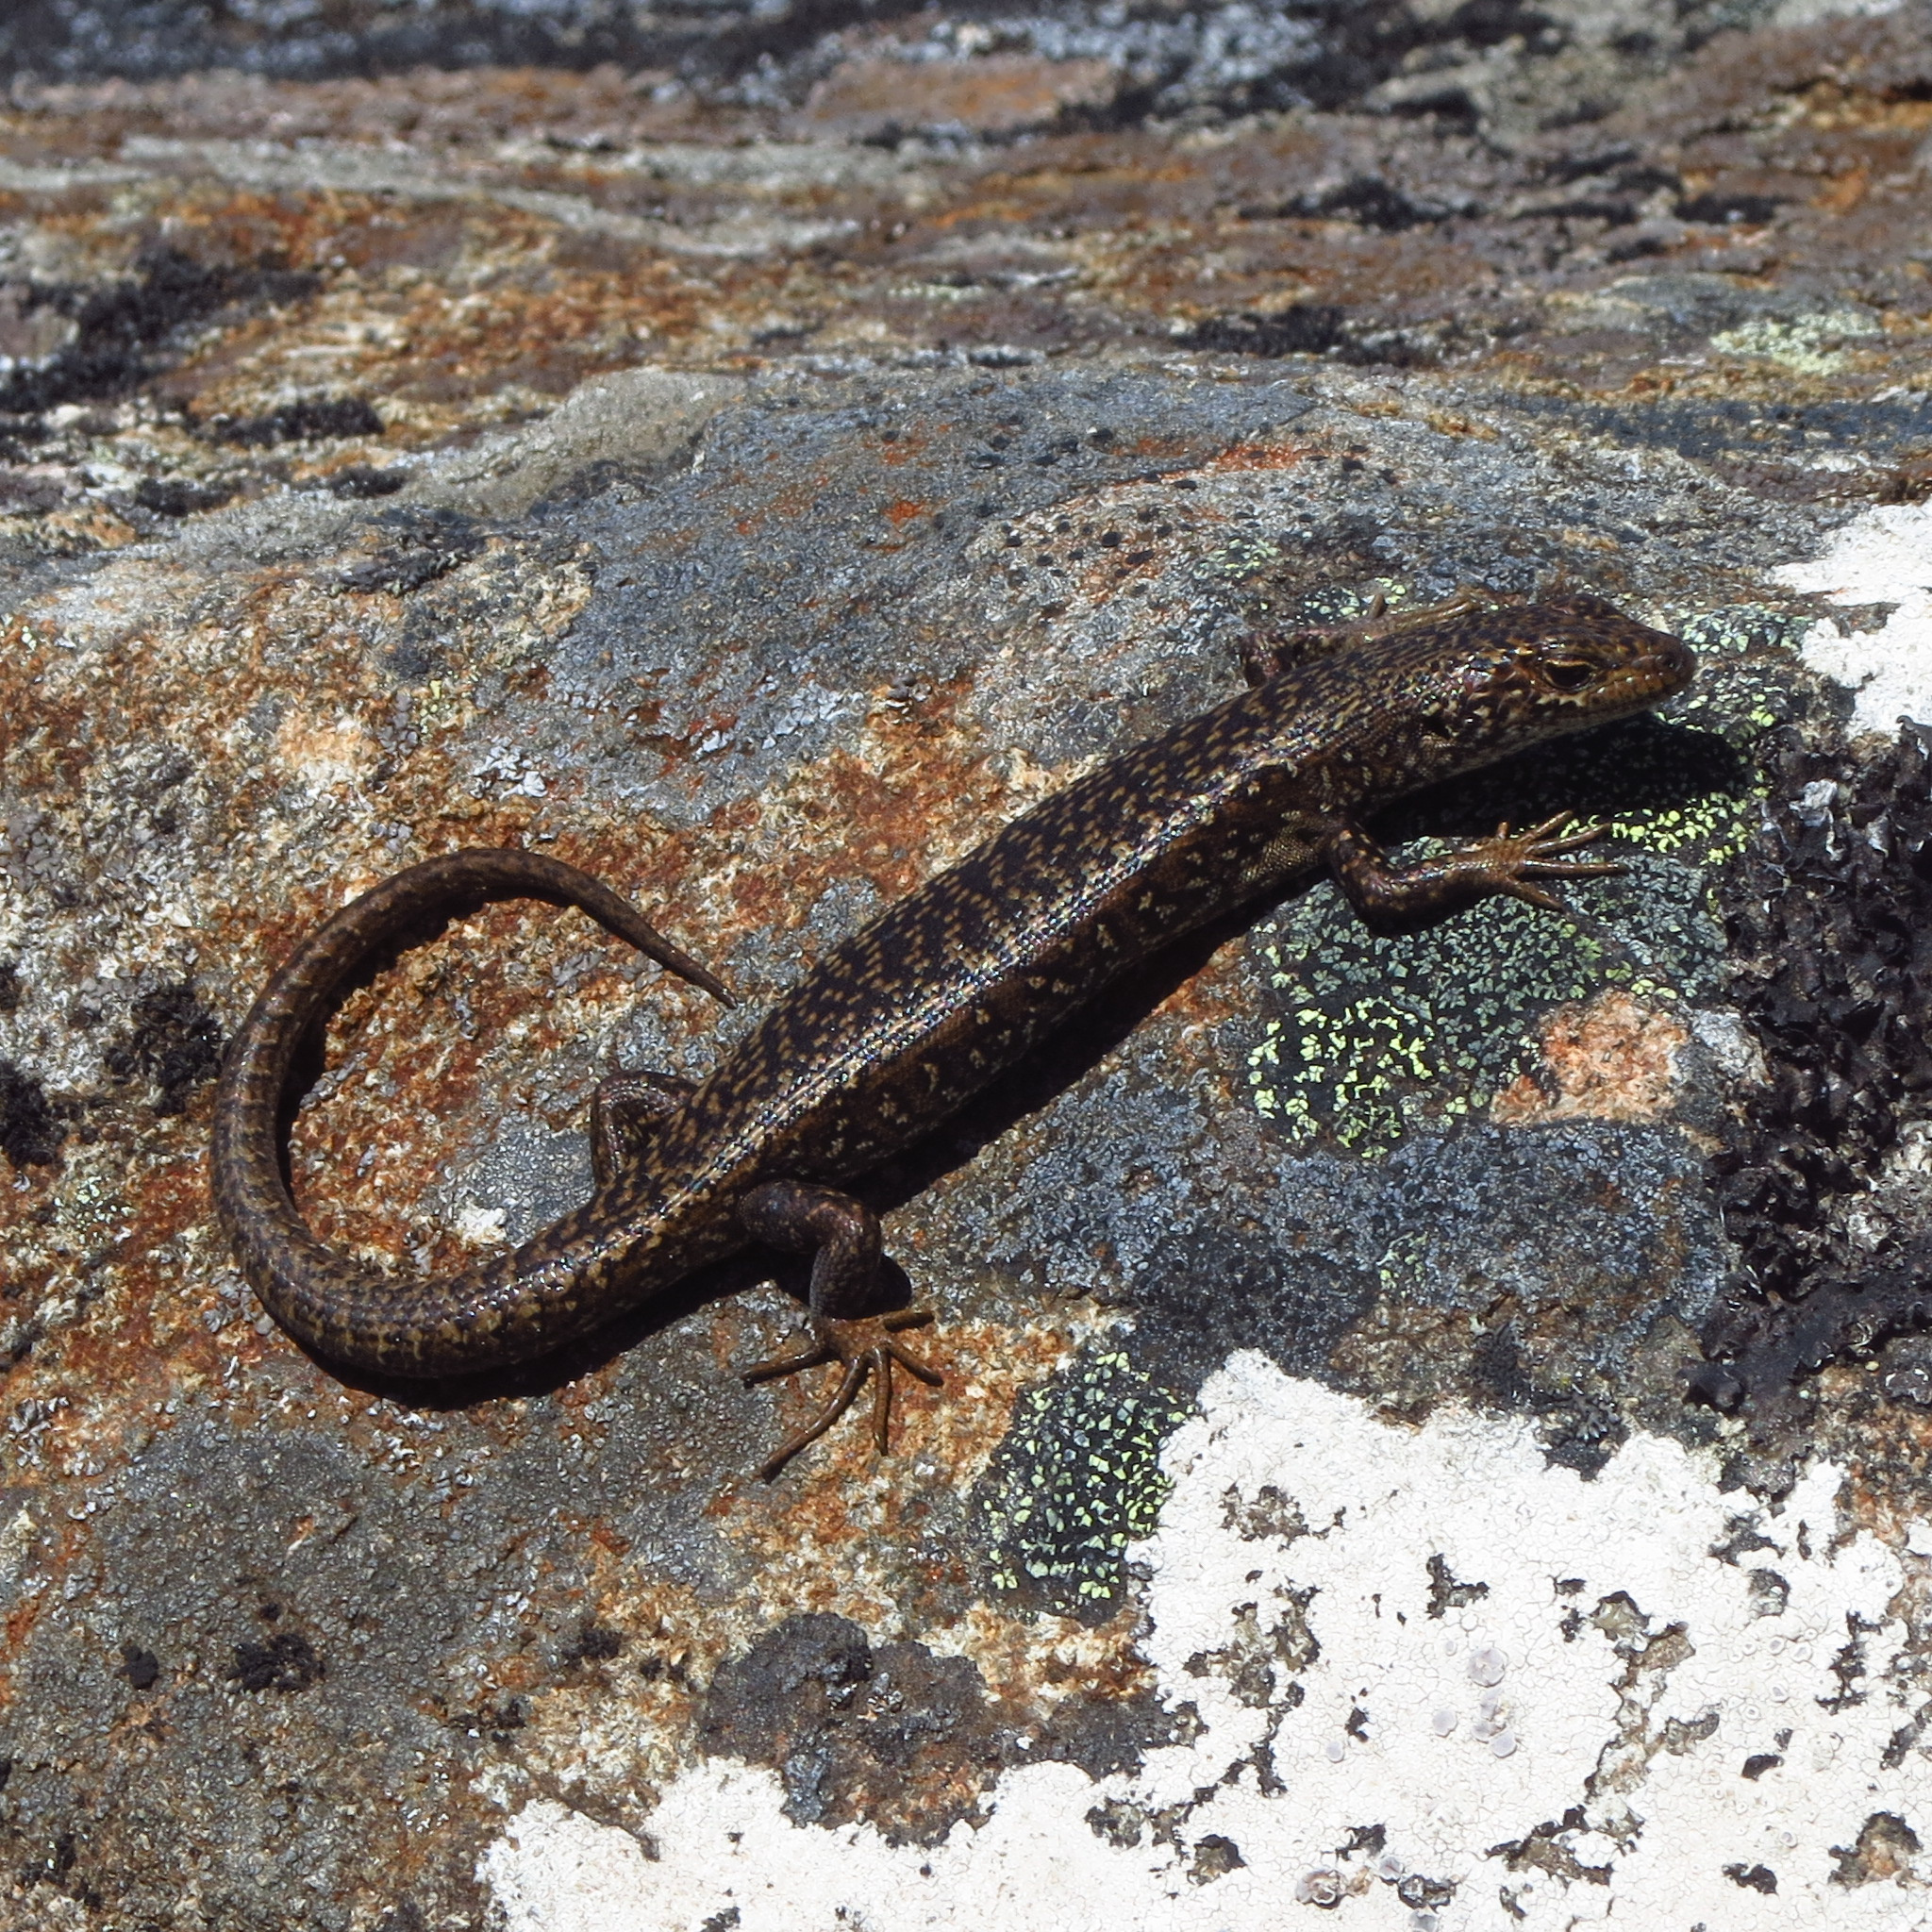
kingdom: Animalia
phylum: Chordata
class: Squamata
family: Scincidae
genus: Carinascincus
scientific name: Carinascincus ocellatus
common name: Ocellated cool-skink
